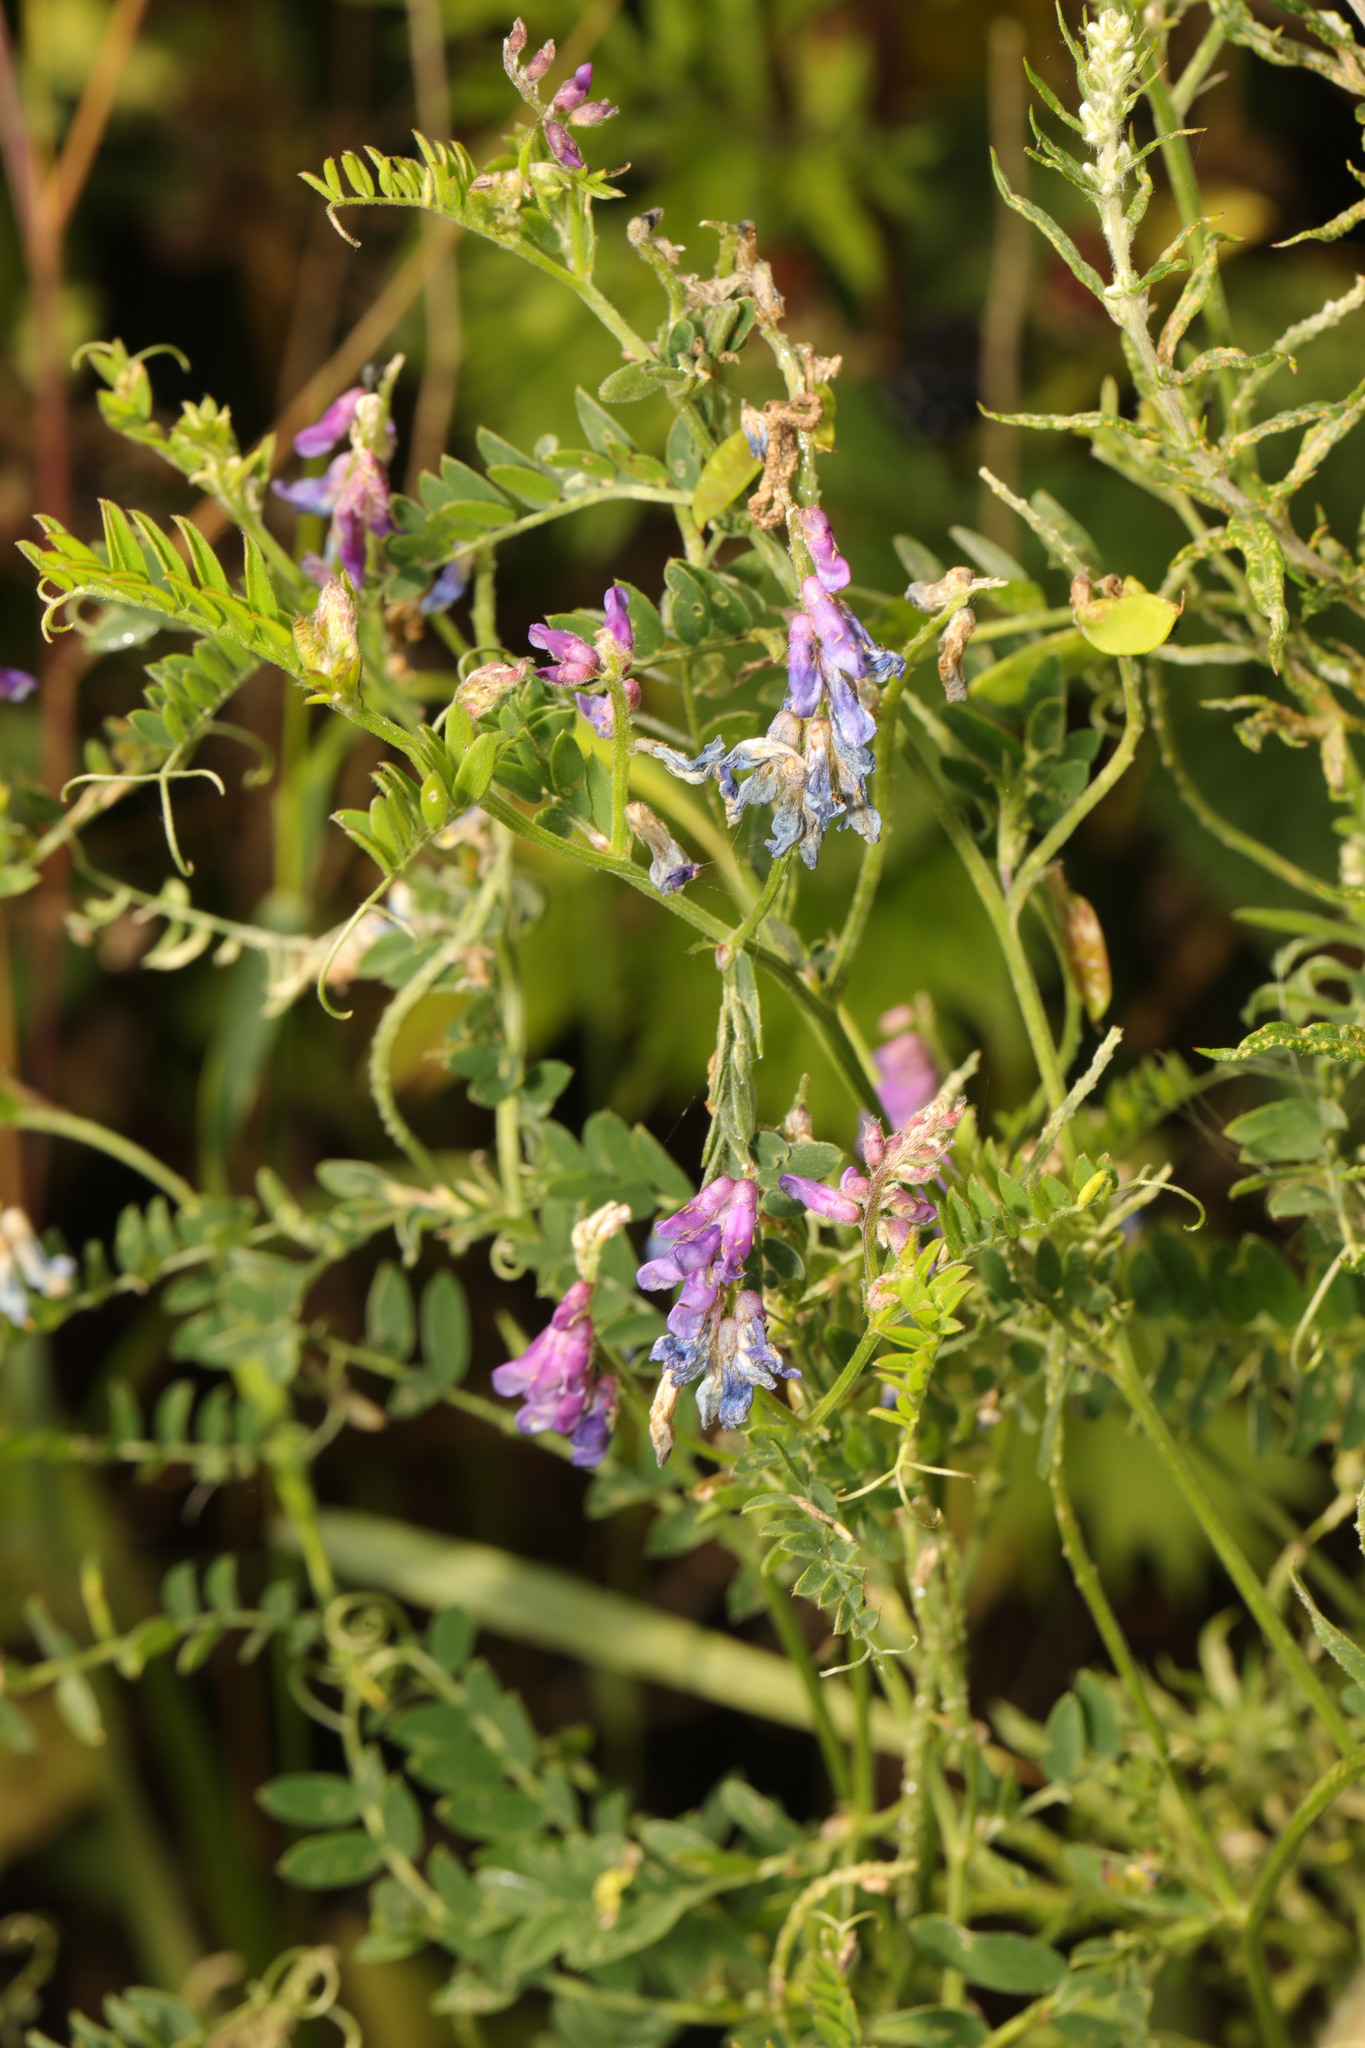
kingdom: Plantae
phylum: Tracheophyta
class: Magnoliopsida
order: Fabales
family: Fabaceae
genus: Vicia
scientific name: Vicia cracca
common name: Bird vetch
